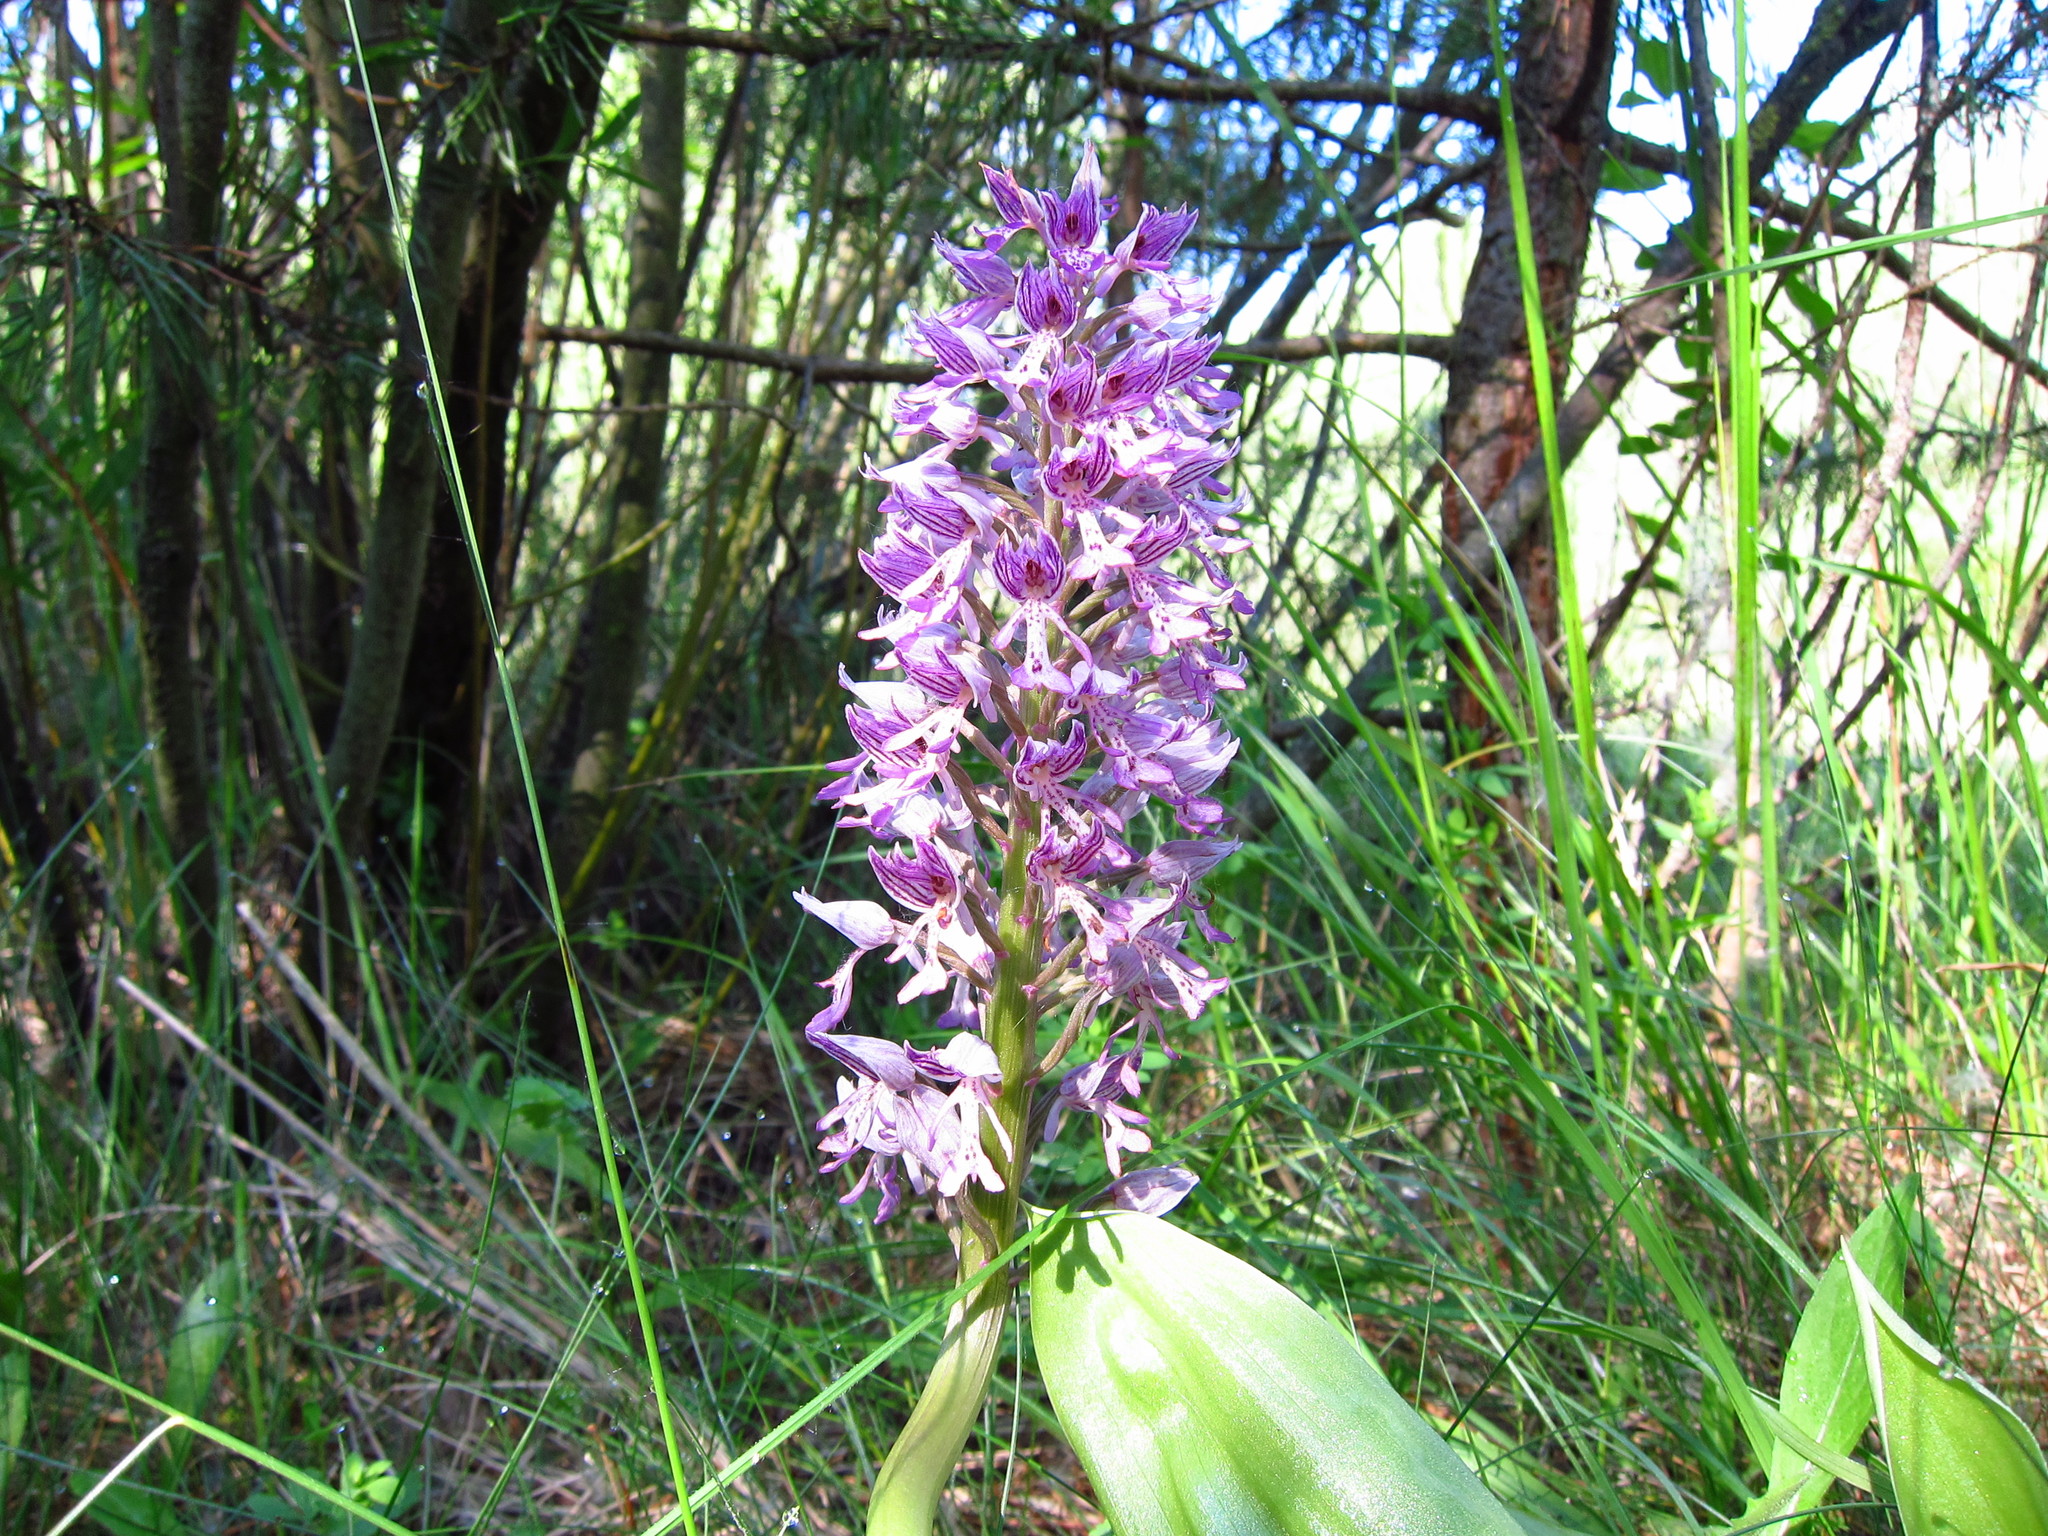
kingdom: Plantae
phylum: Tracheophyta
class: Liliopsida
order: Asparagales
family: Orchidaceae
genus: Orchis
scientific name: Orchis militaris
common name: Military orchid
